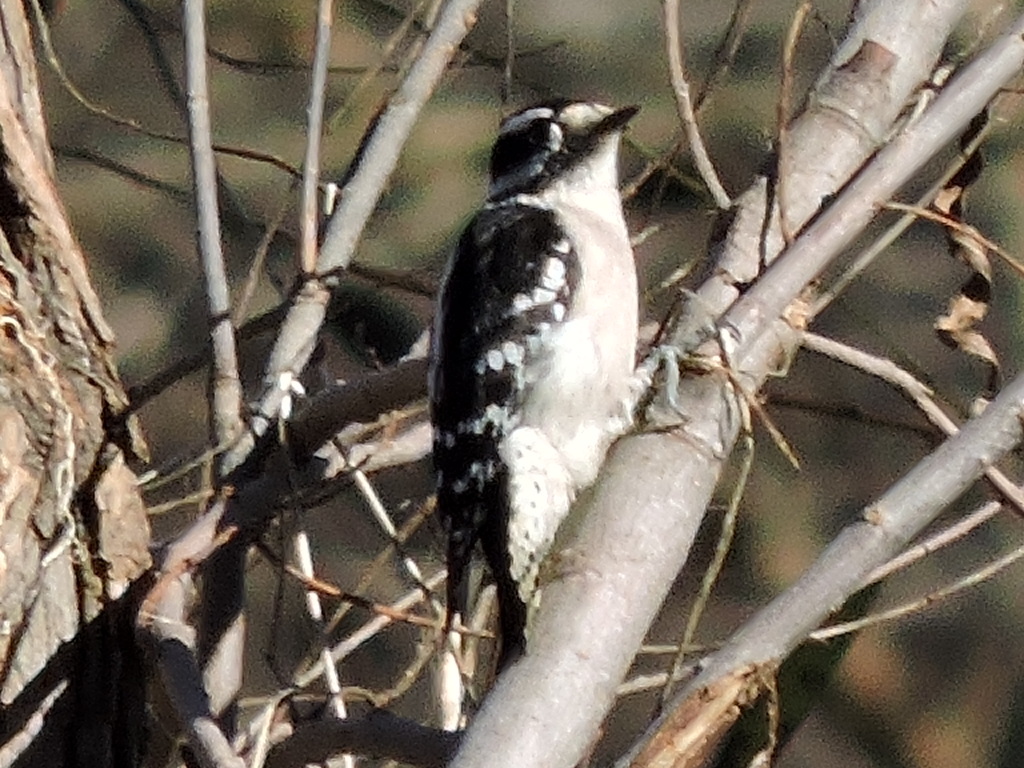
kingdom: Animalia
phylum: Chordata
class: Aves
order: Piciformes
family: Picidae
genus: Dryobates
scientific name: Dryobates pubescens
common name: Downy woodpecker
